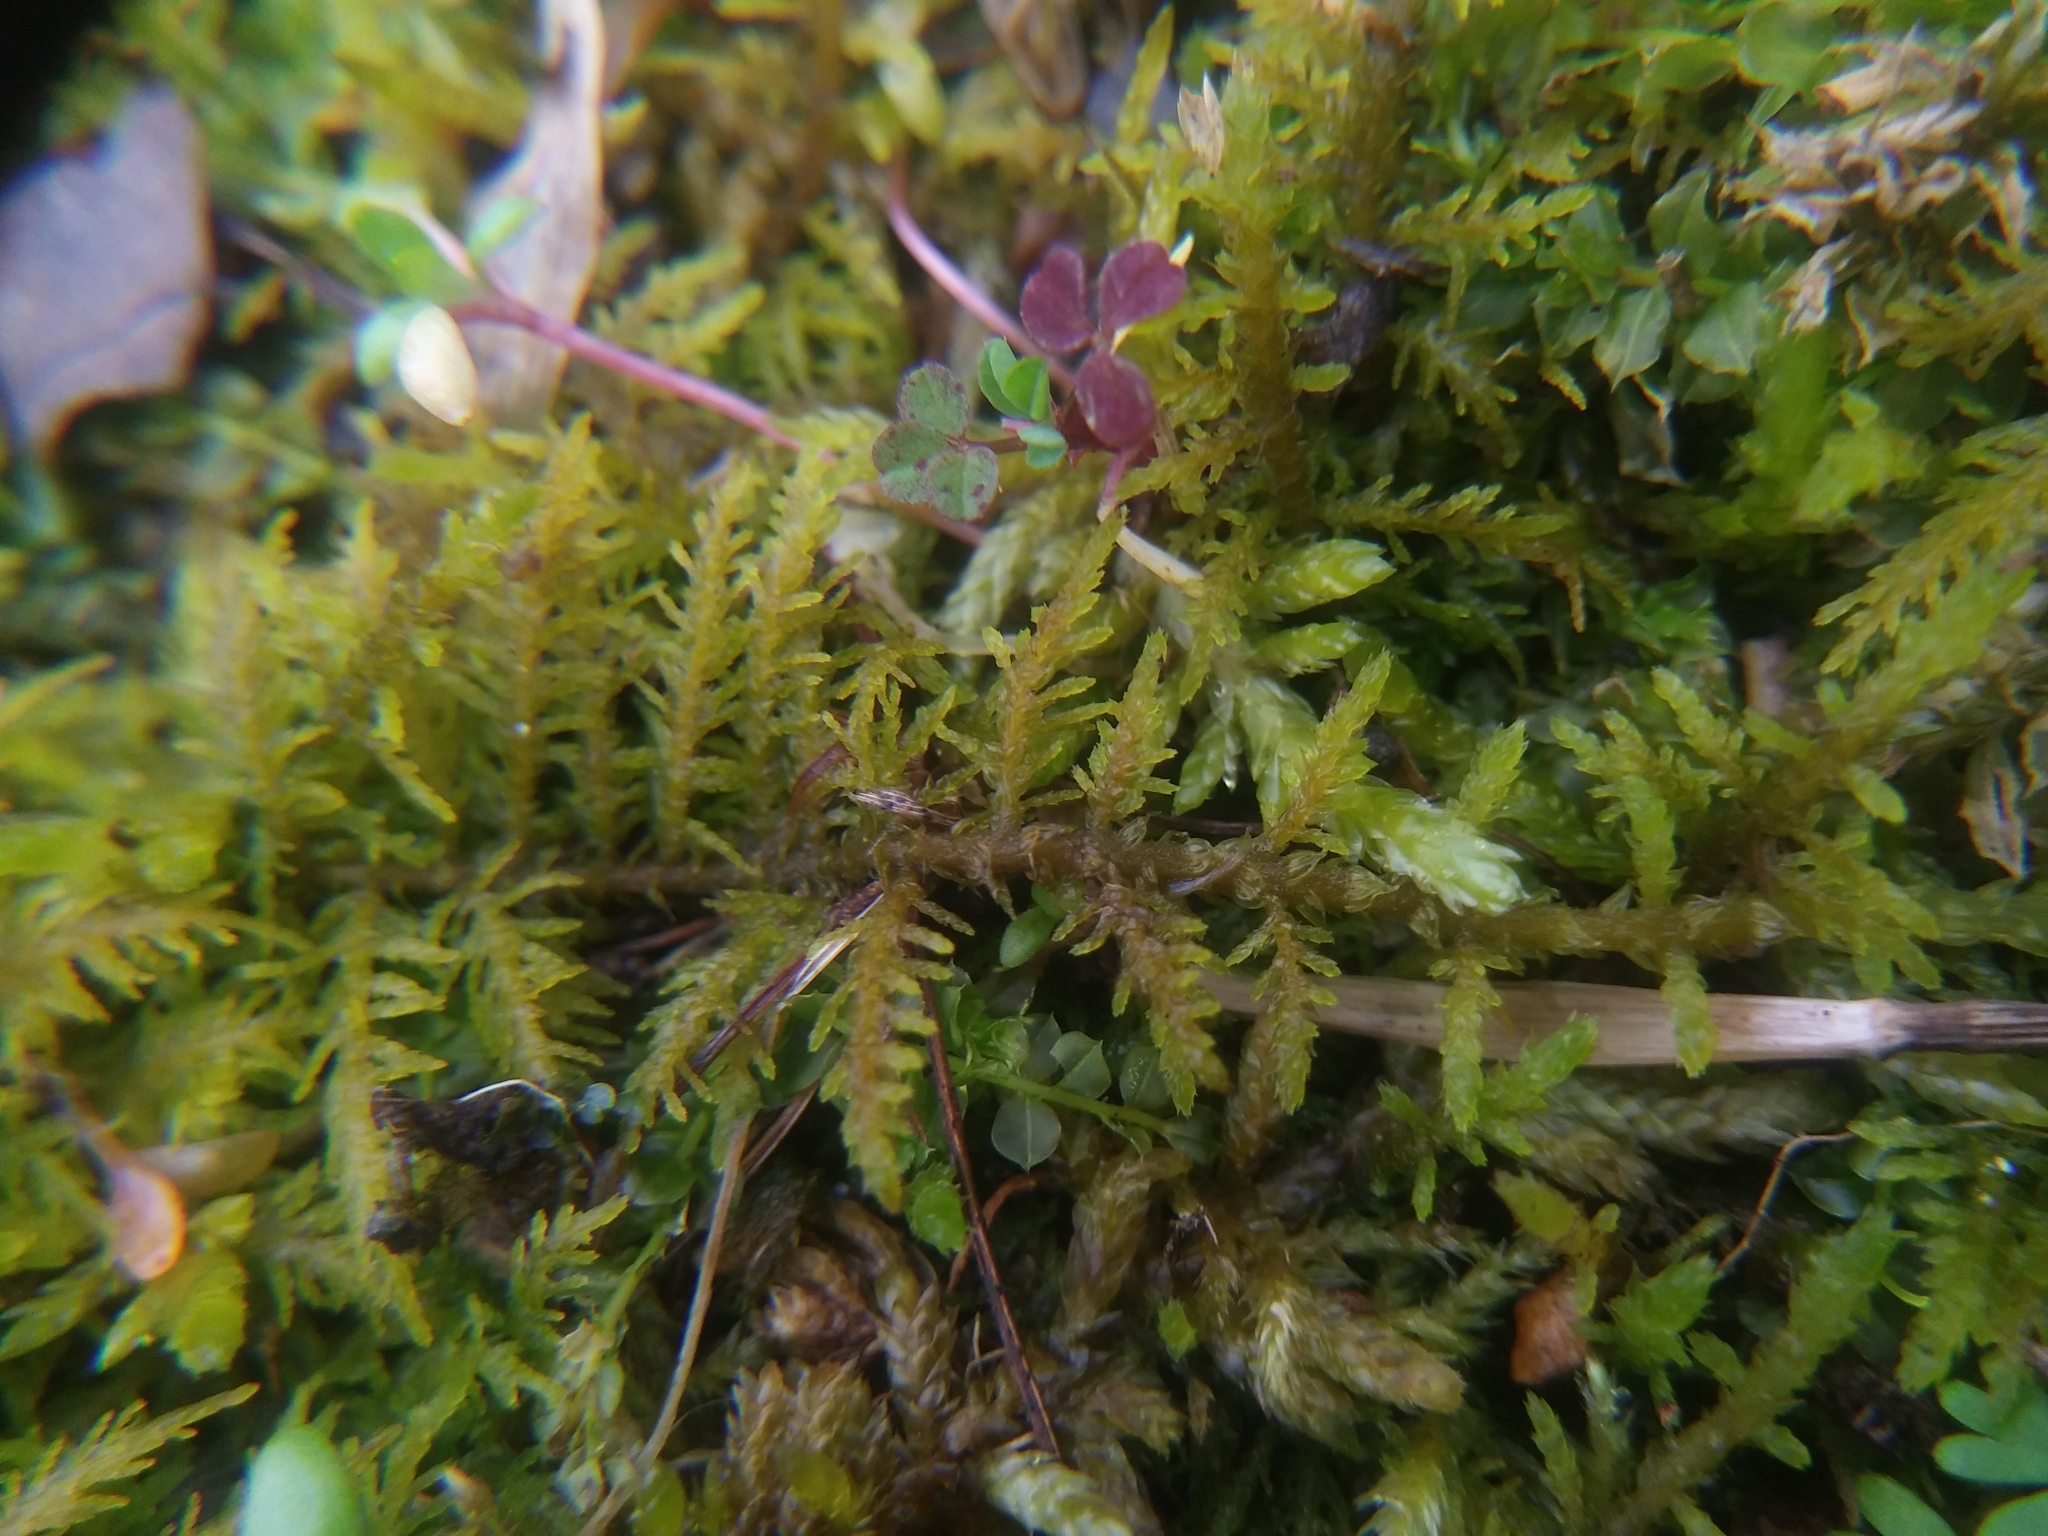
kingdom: Plantae
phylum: Bryophyta
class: Bryopsida
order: Hypnales
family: Thuidiaceae
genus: Thuidium
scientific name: Thuidium delicatulum
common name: Delicate fern moss
